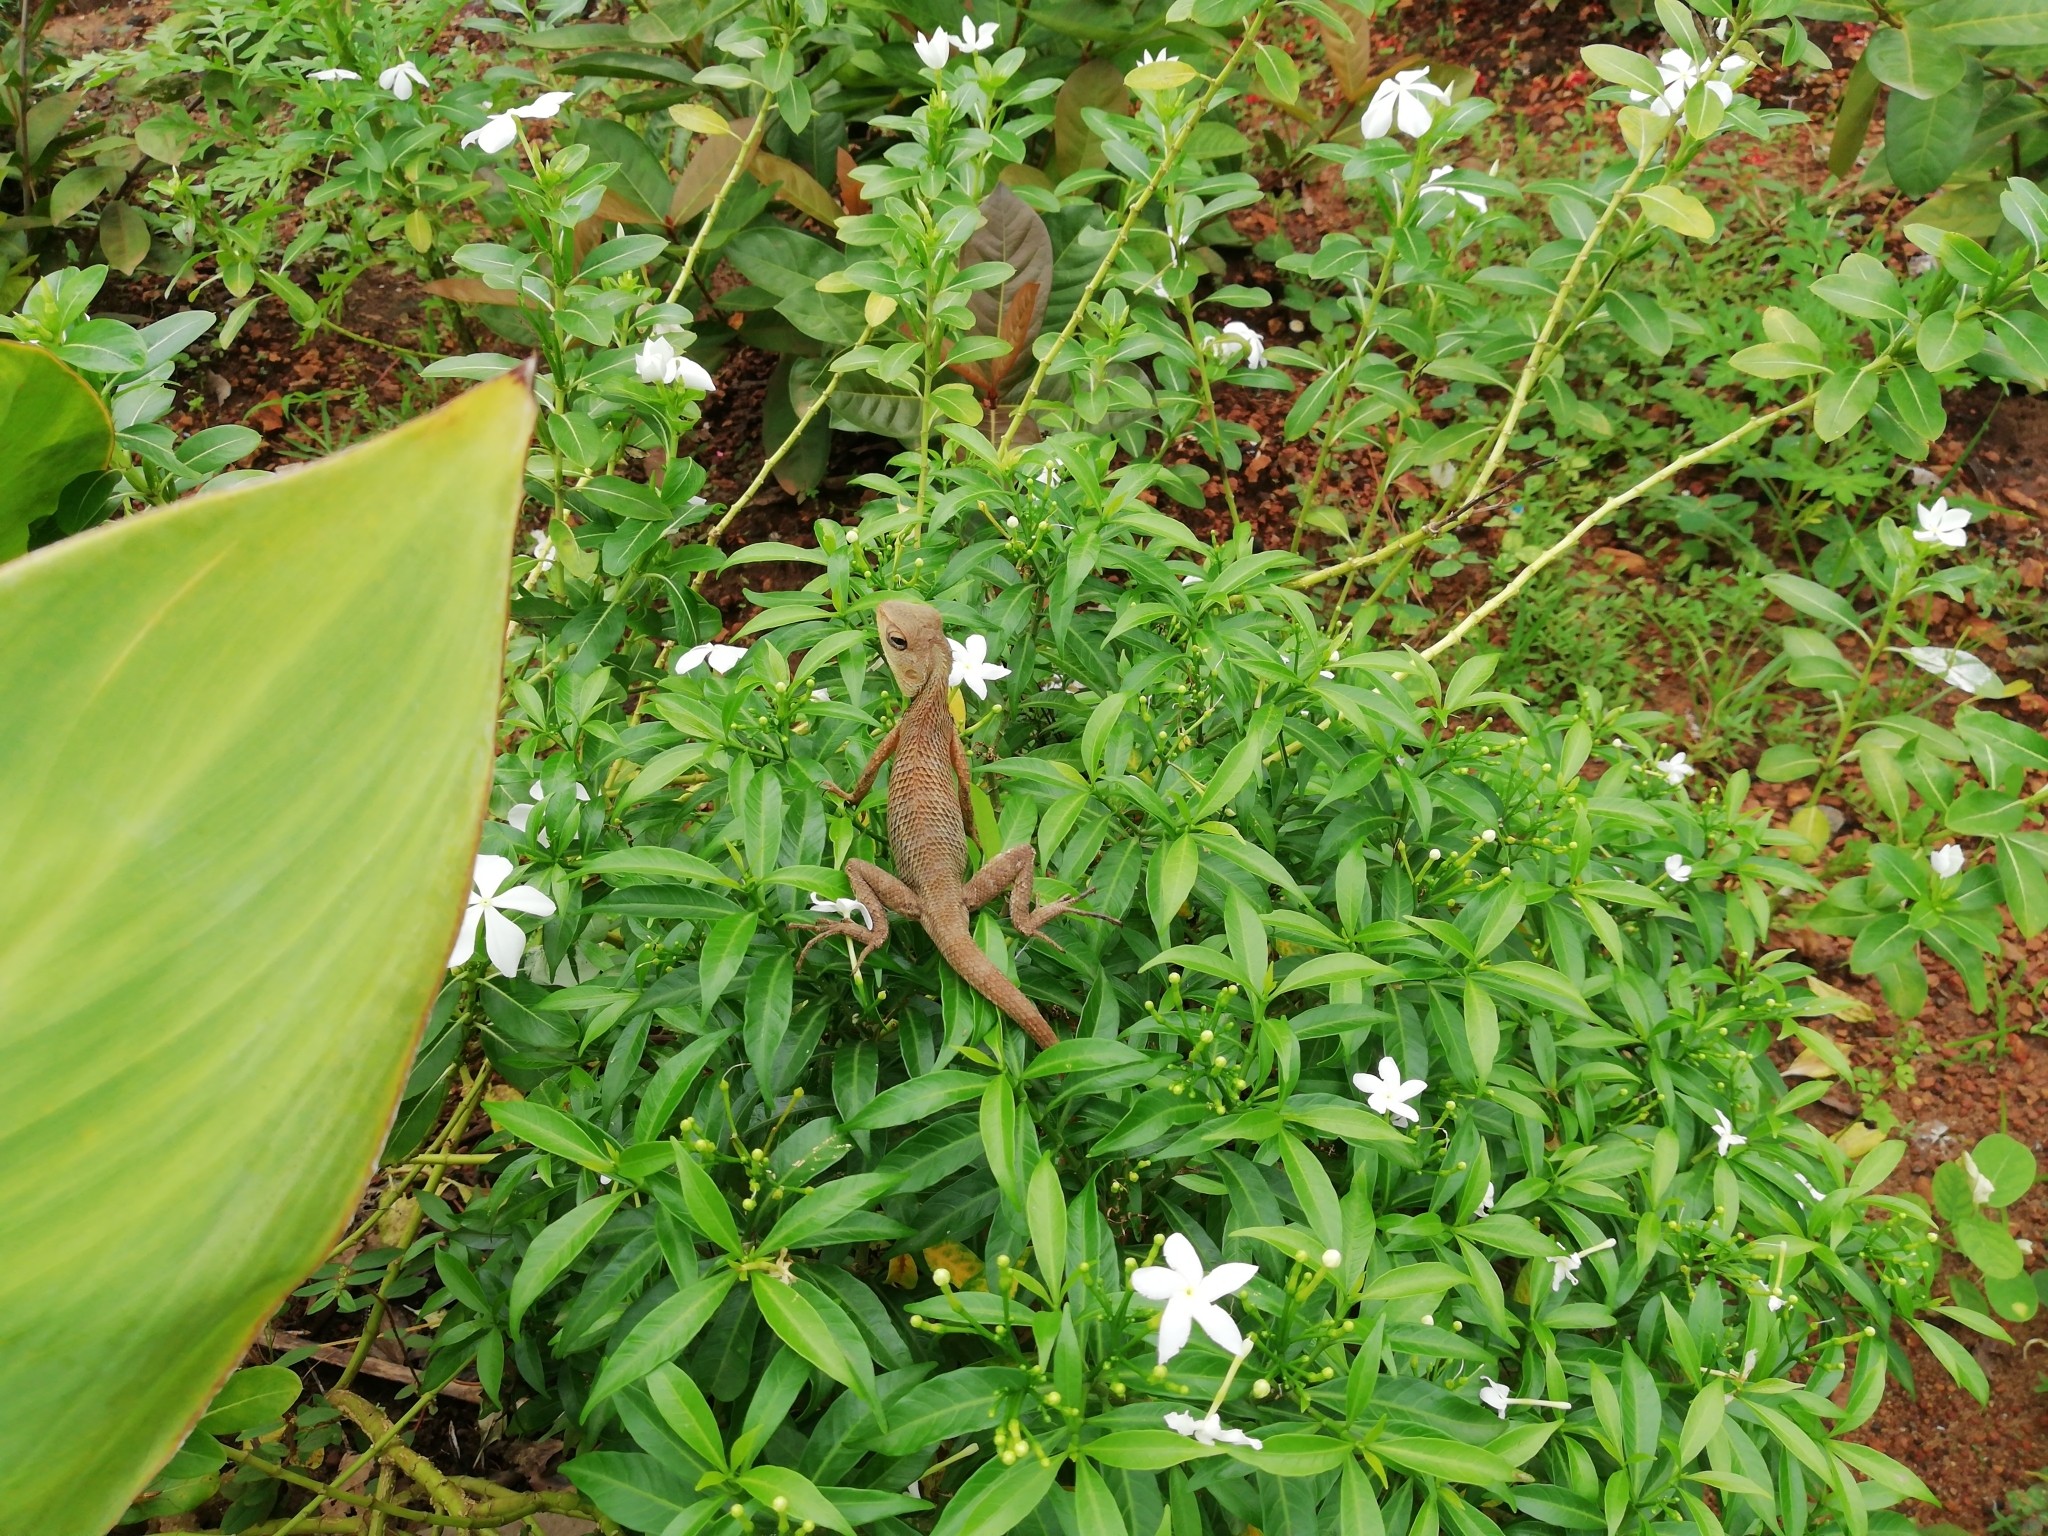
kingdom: Animalia
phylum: Chordata
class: Squamata
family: Agamidae
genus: Calotes
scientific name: Calotes versicolor
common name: Oriental garden lizard
